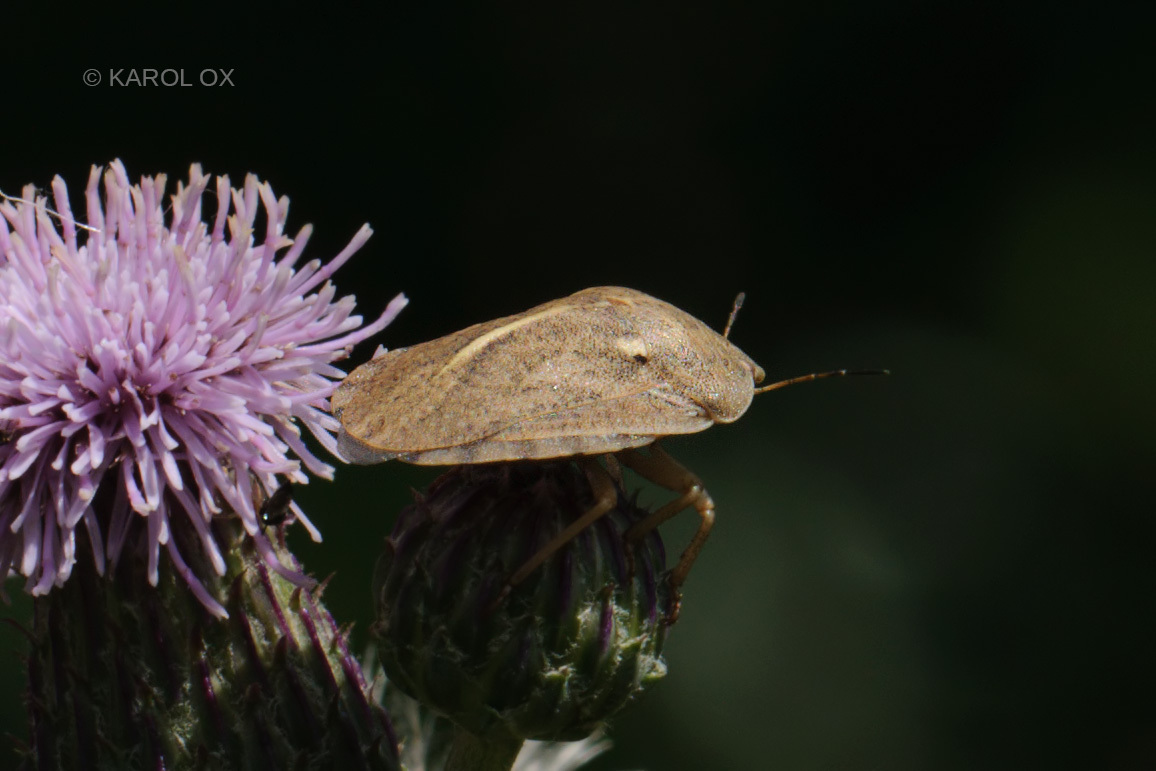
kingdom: Animalia
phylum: Arthropoda
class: Insecta
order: Hemiptera
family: Scutelleridae
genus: Eurygaster
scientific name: Eurygaster austriaca
